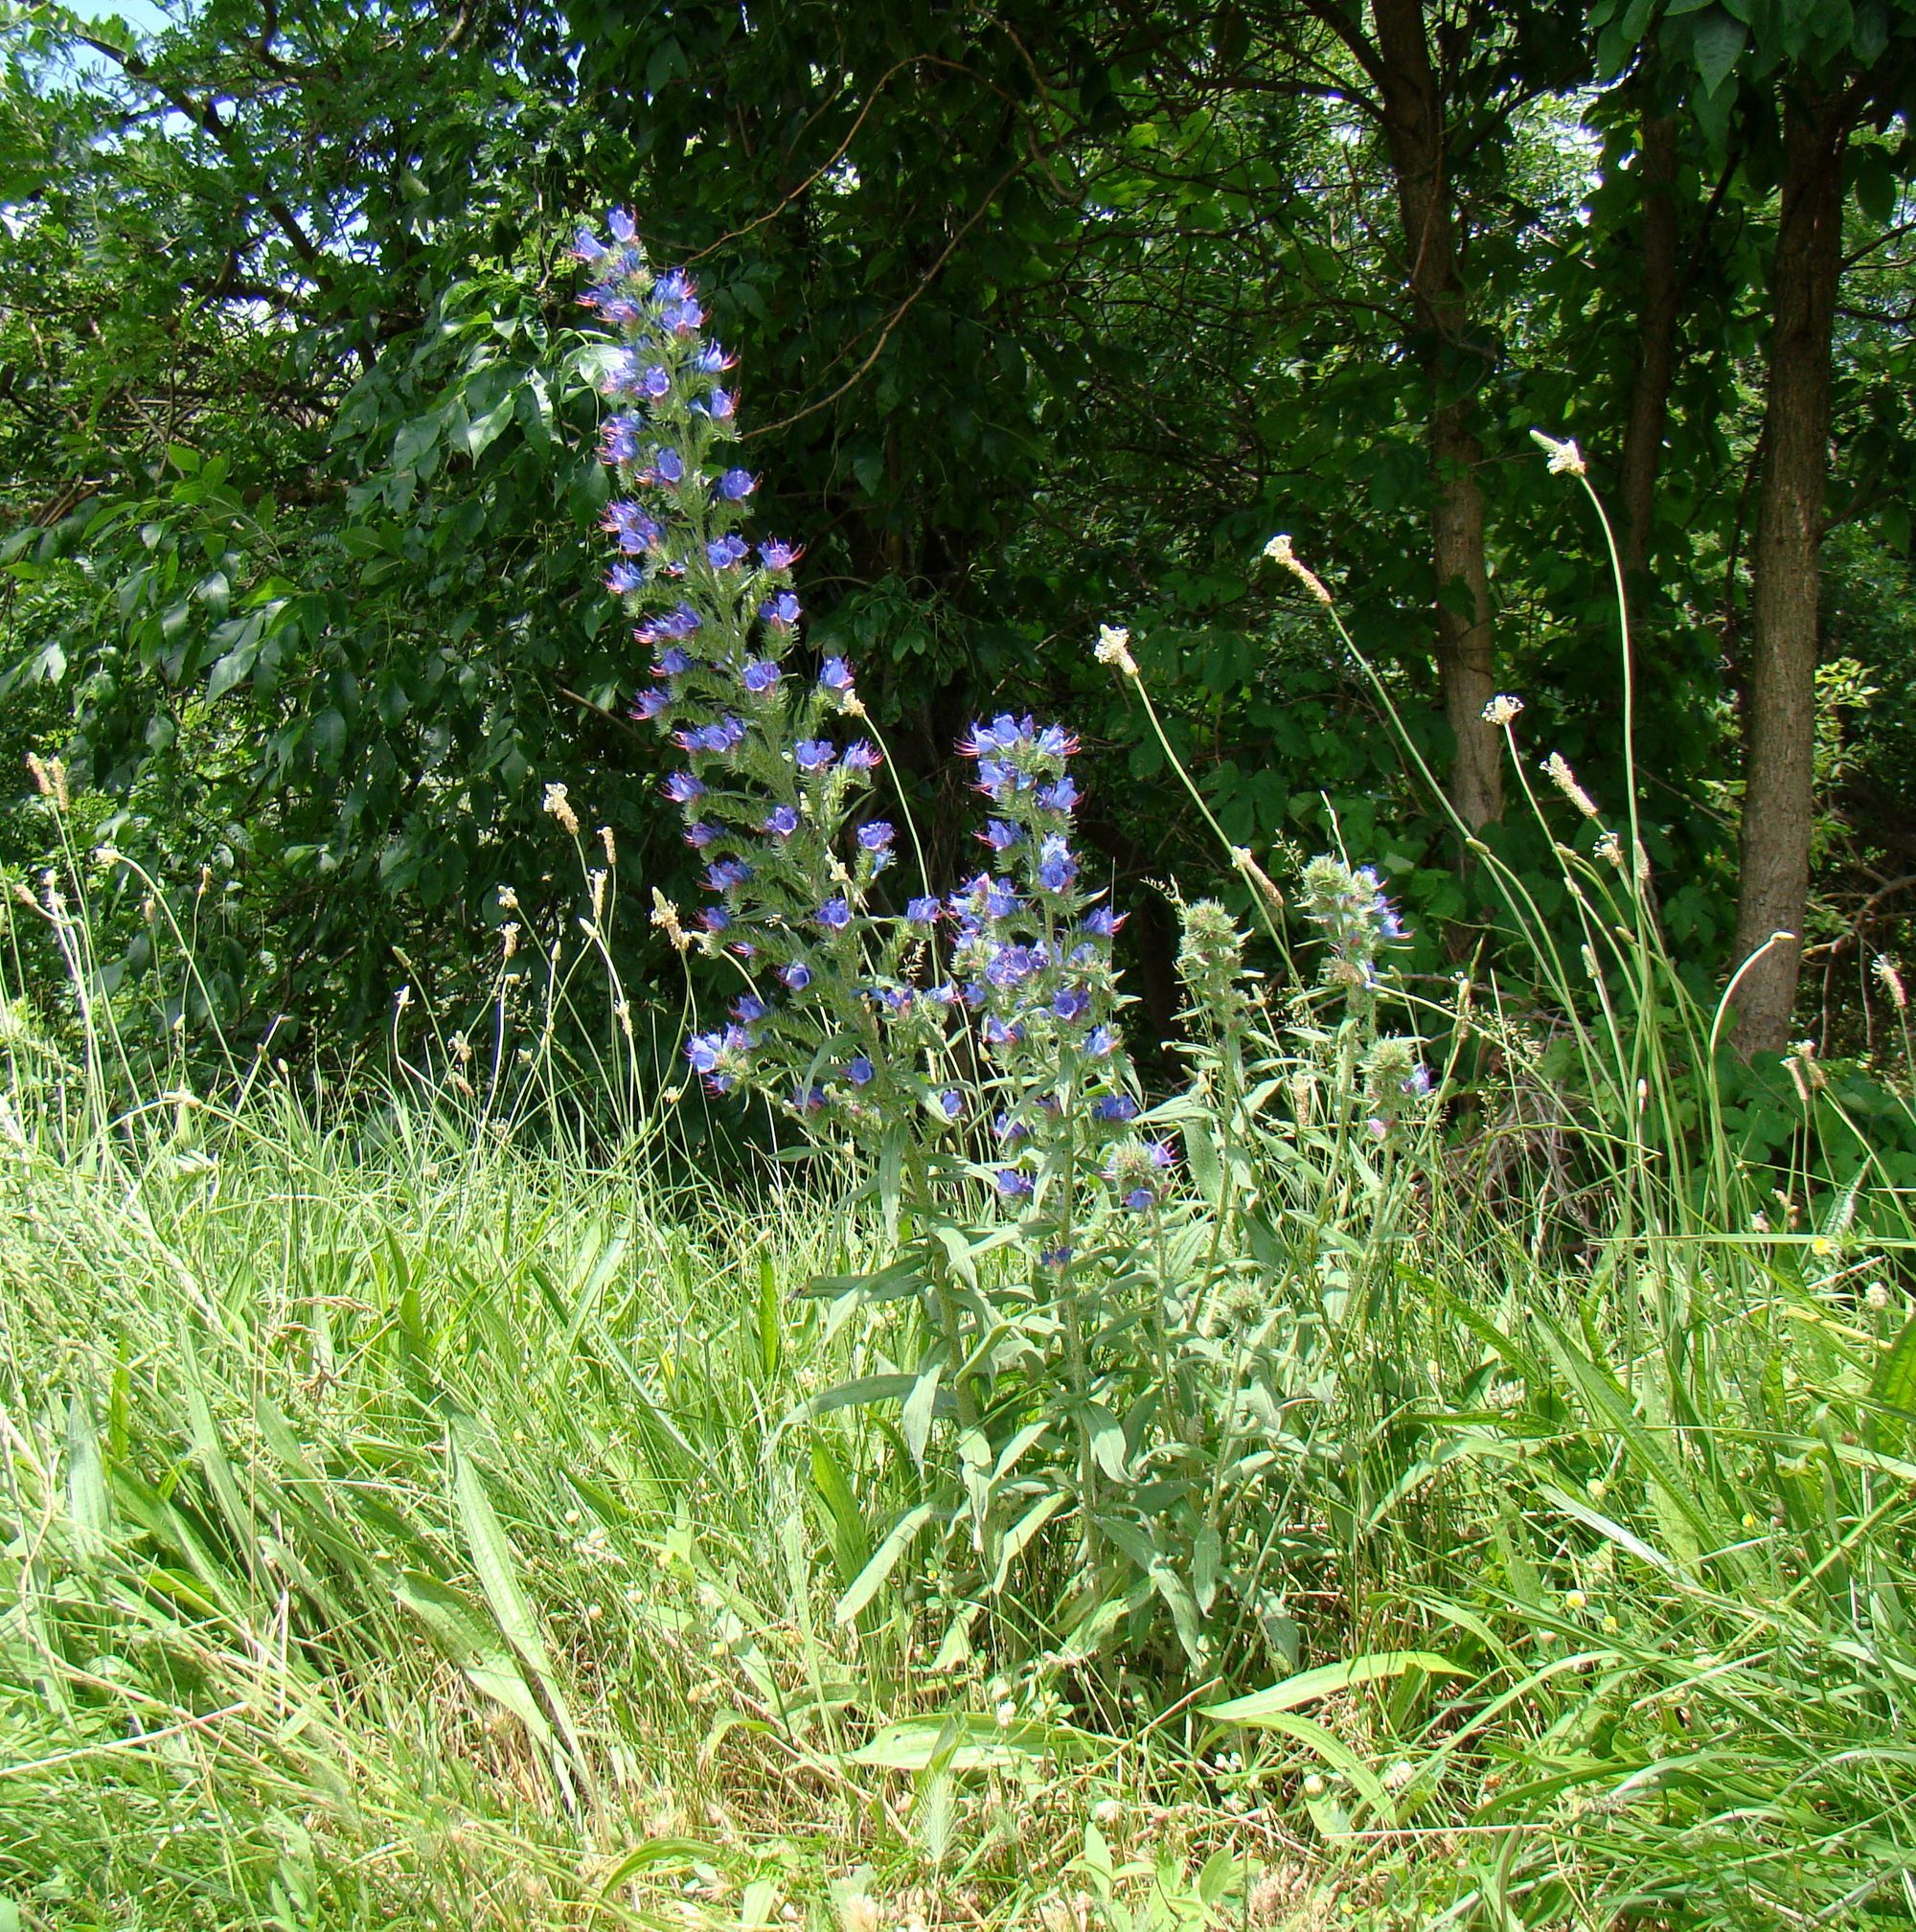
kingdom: Plantae
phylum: Tracheophyta
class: Magnoliopsida
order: Boraginales
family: Boraginaceae
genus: Echium
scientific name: Echium vulgare
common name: Common viper's bugloss
